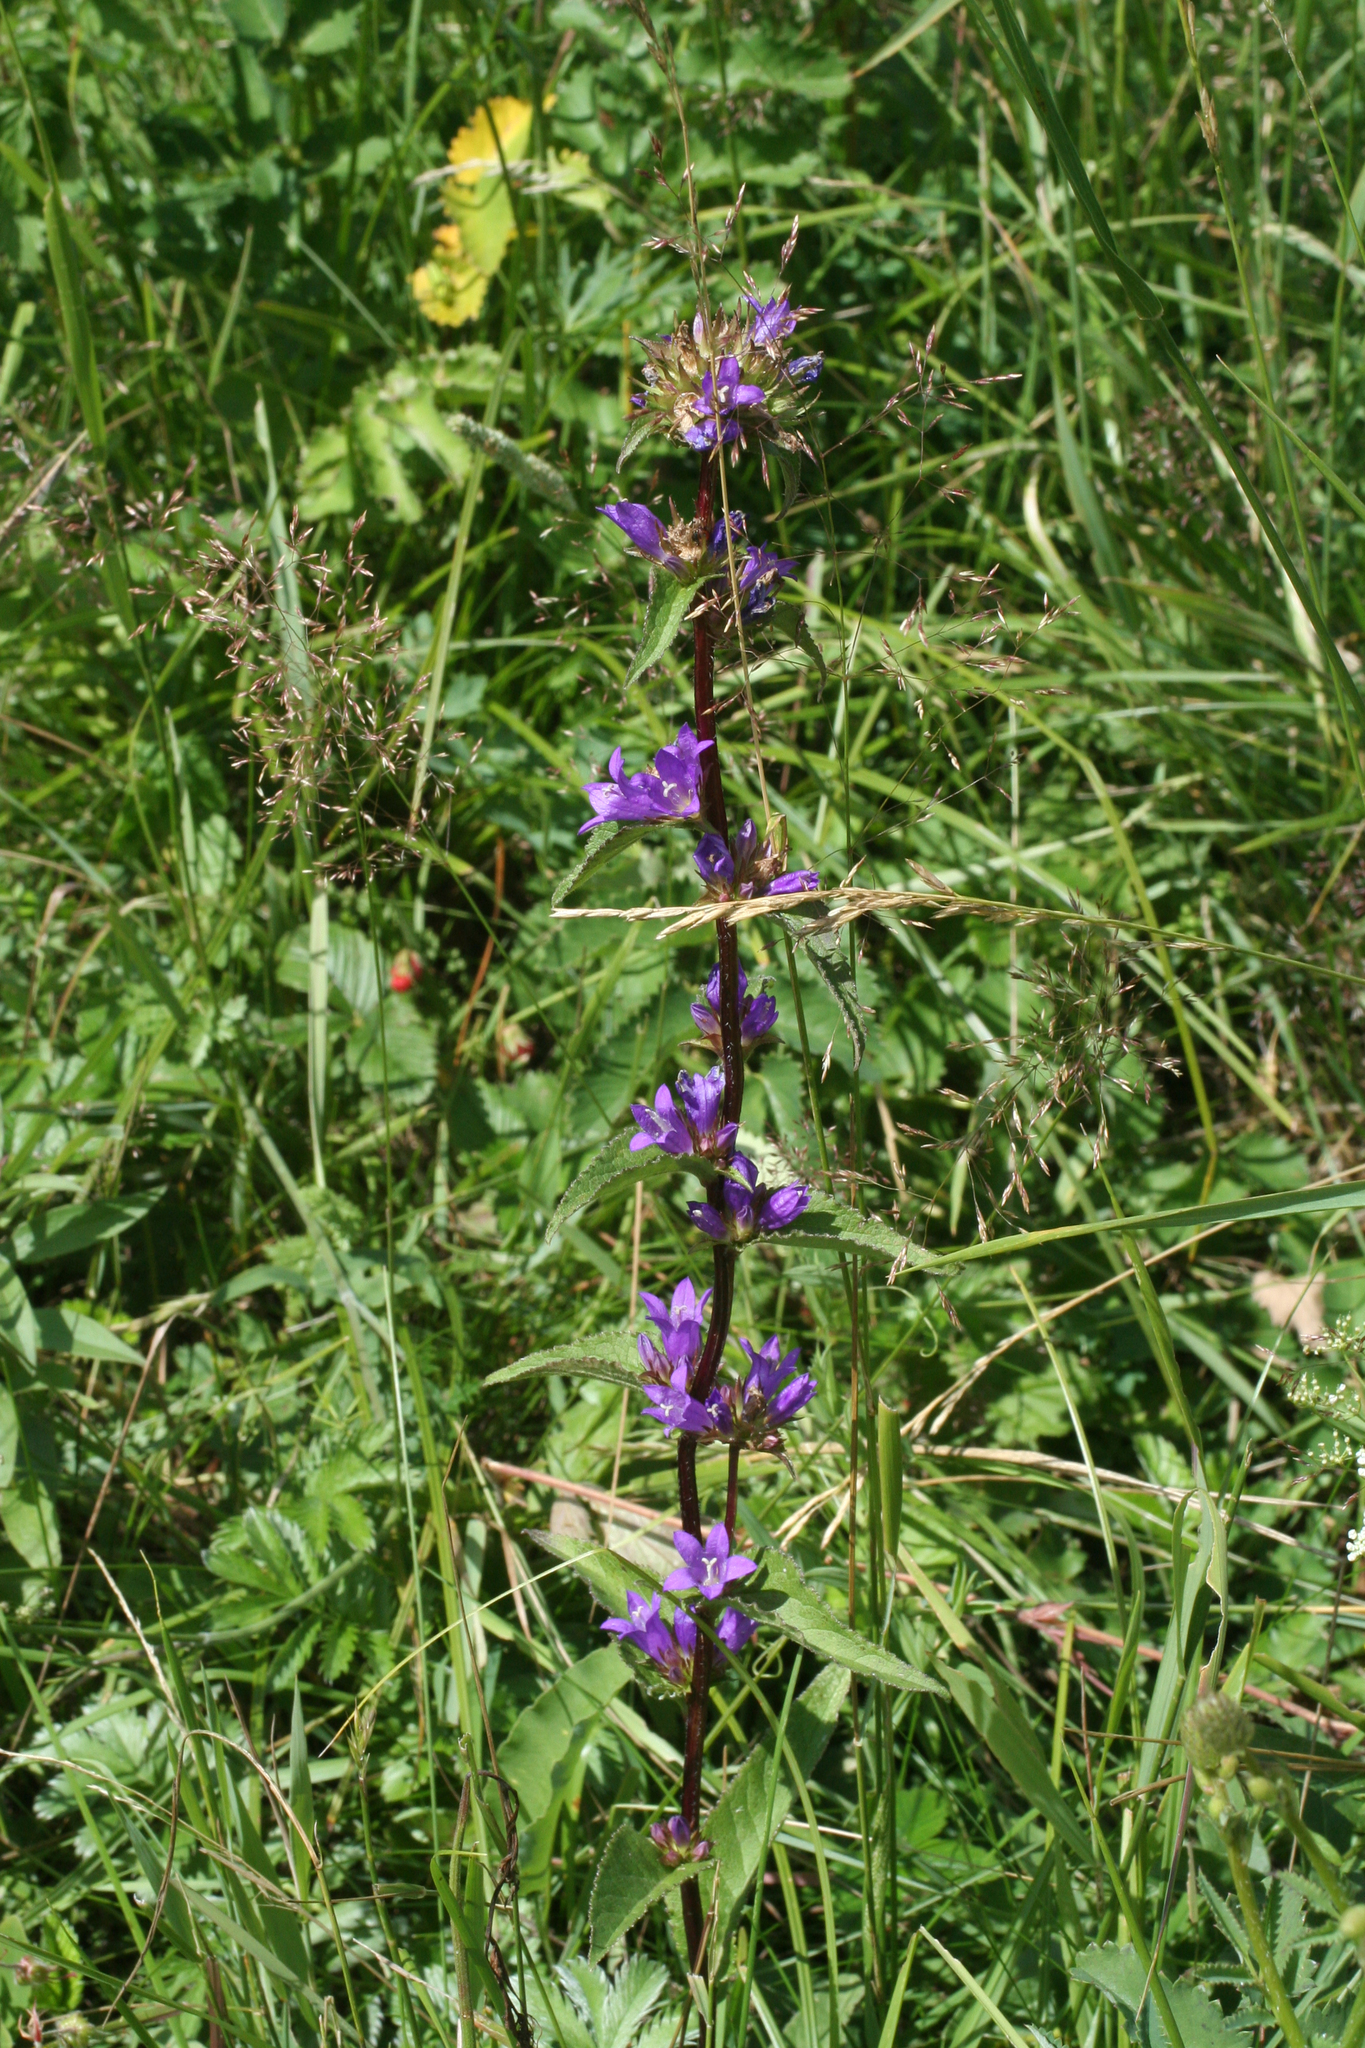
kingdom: Plantae
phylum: Tracheophyta
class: Magnoliopsida
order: Asterales
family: Campanulaceae
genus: Campanula
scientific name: Campanula glomerata
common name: Clustered bellflower
